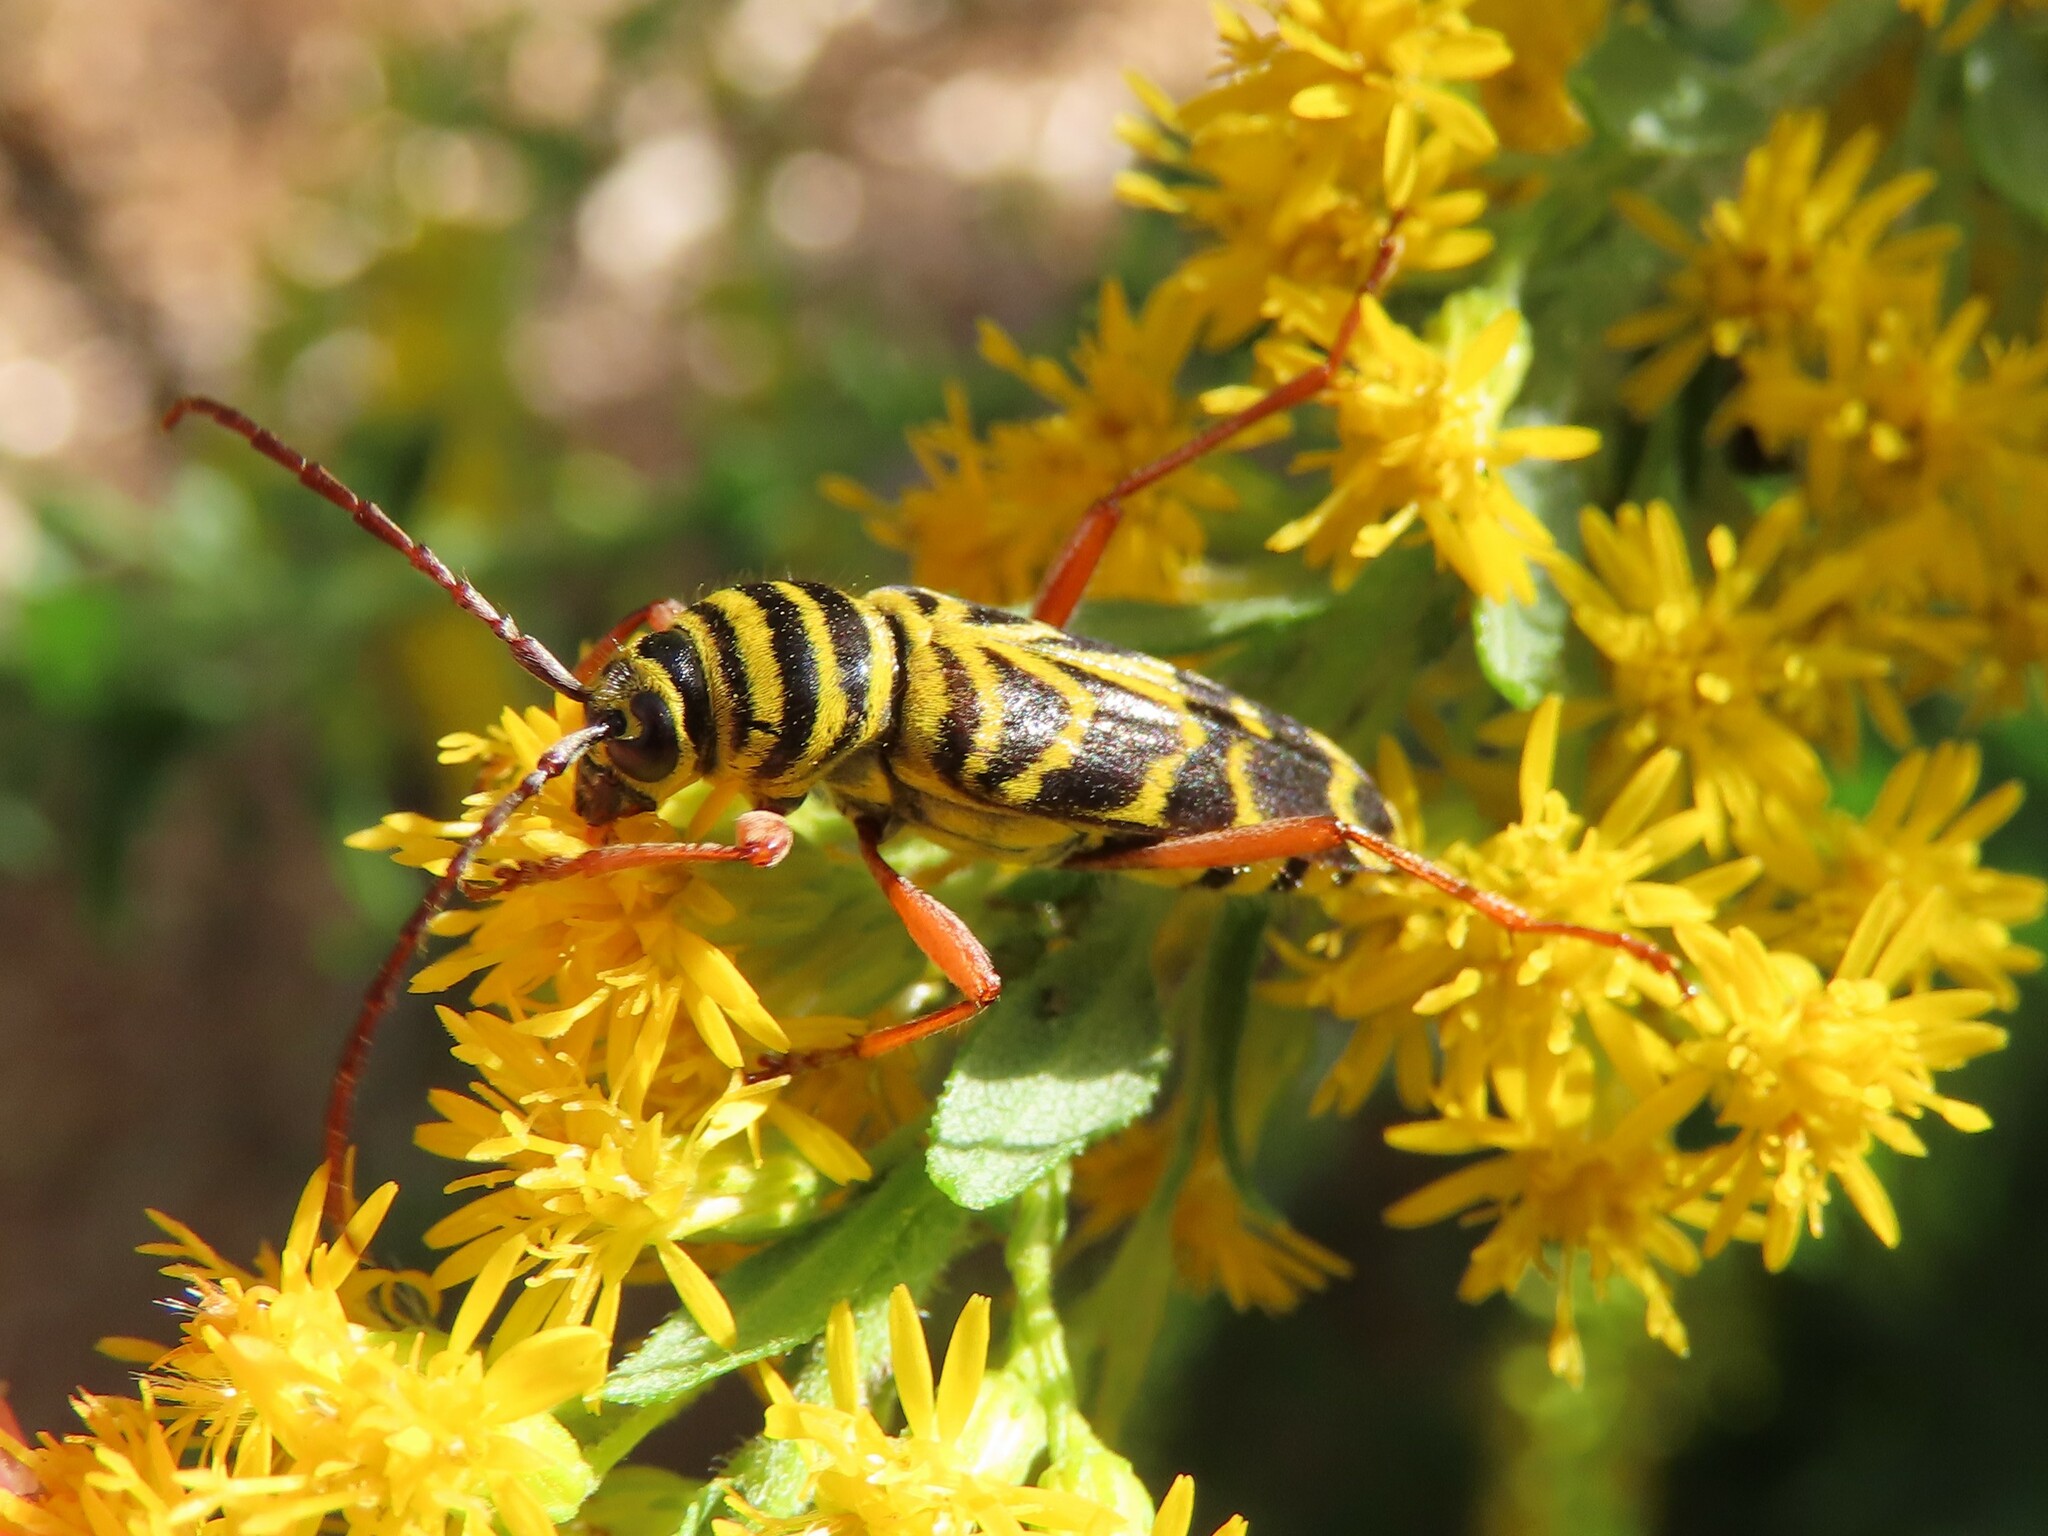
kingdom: Animalia
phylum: Arthropoda
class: Insecta
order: Coleoptera
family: Cerambycidae
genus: Megacyllene
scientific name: Megacyllene robiniae
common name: Locust borer
